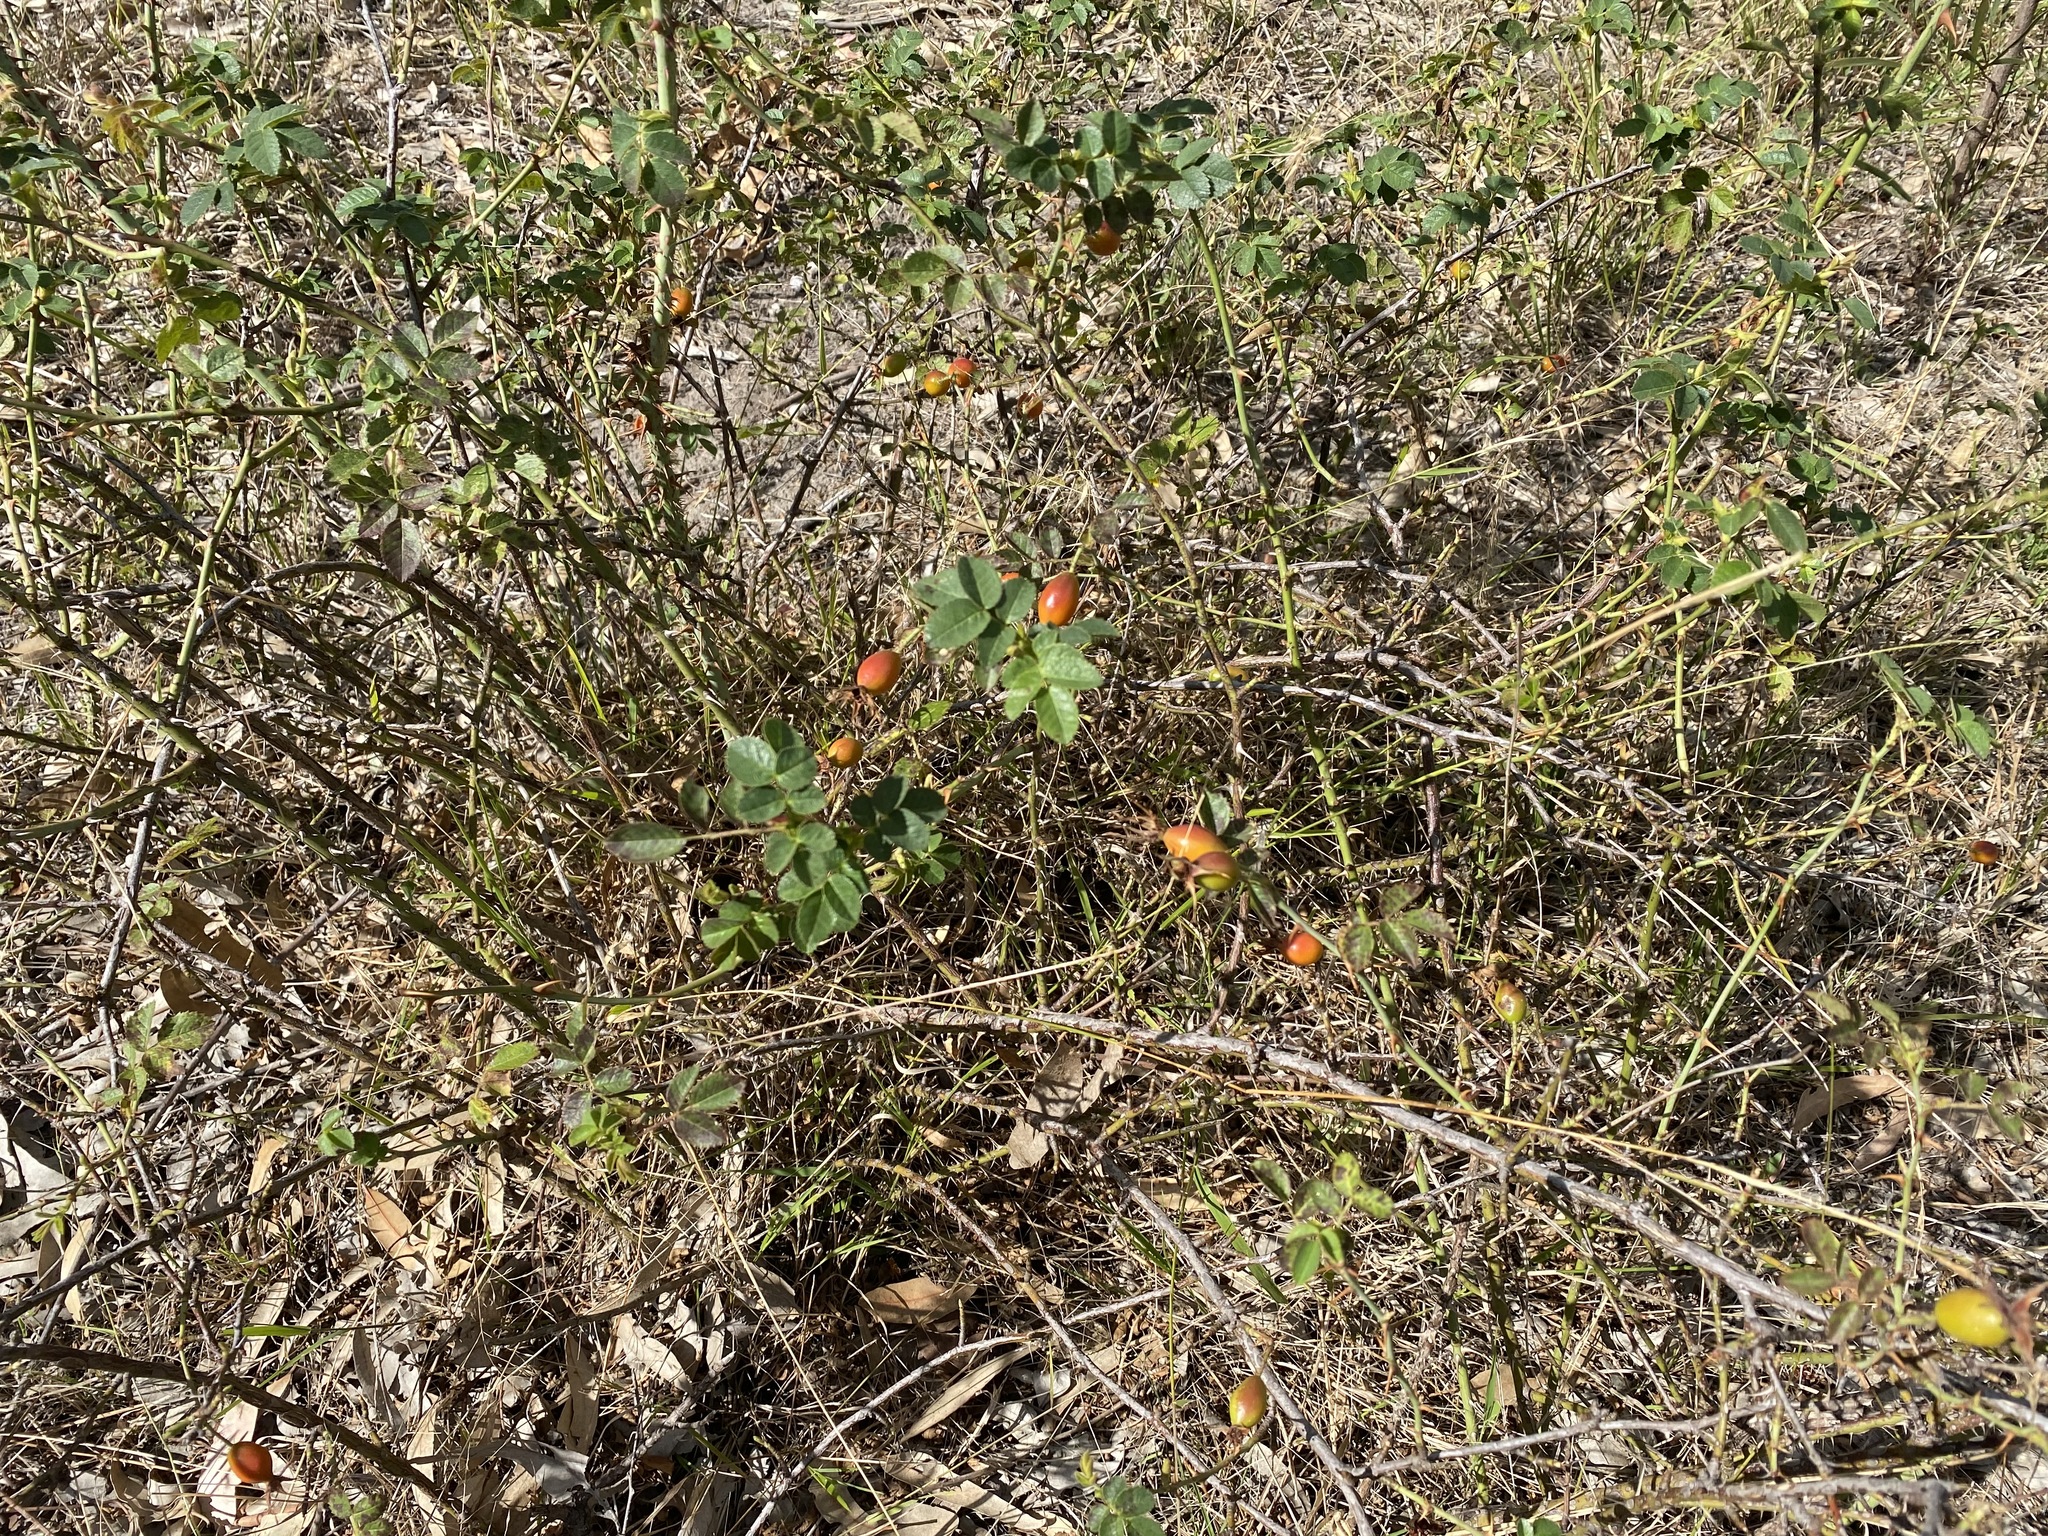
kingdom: Plantae
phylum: Tracheophyta
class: Magnoliopsida
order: Rosales
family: Rosaceae
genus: Rosa
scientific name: Rosa rubiginosa
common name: Sweet-briar
